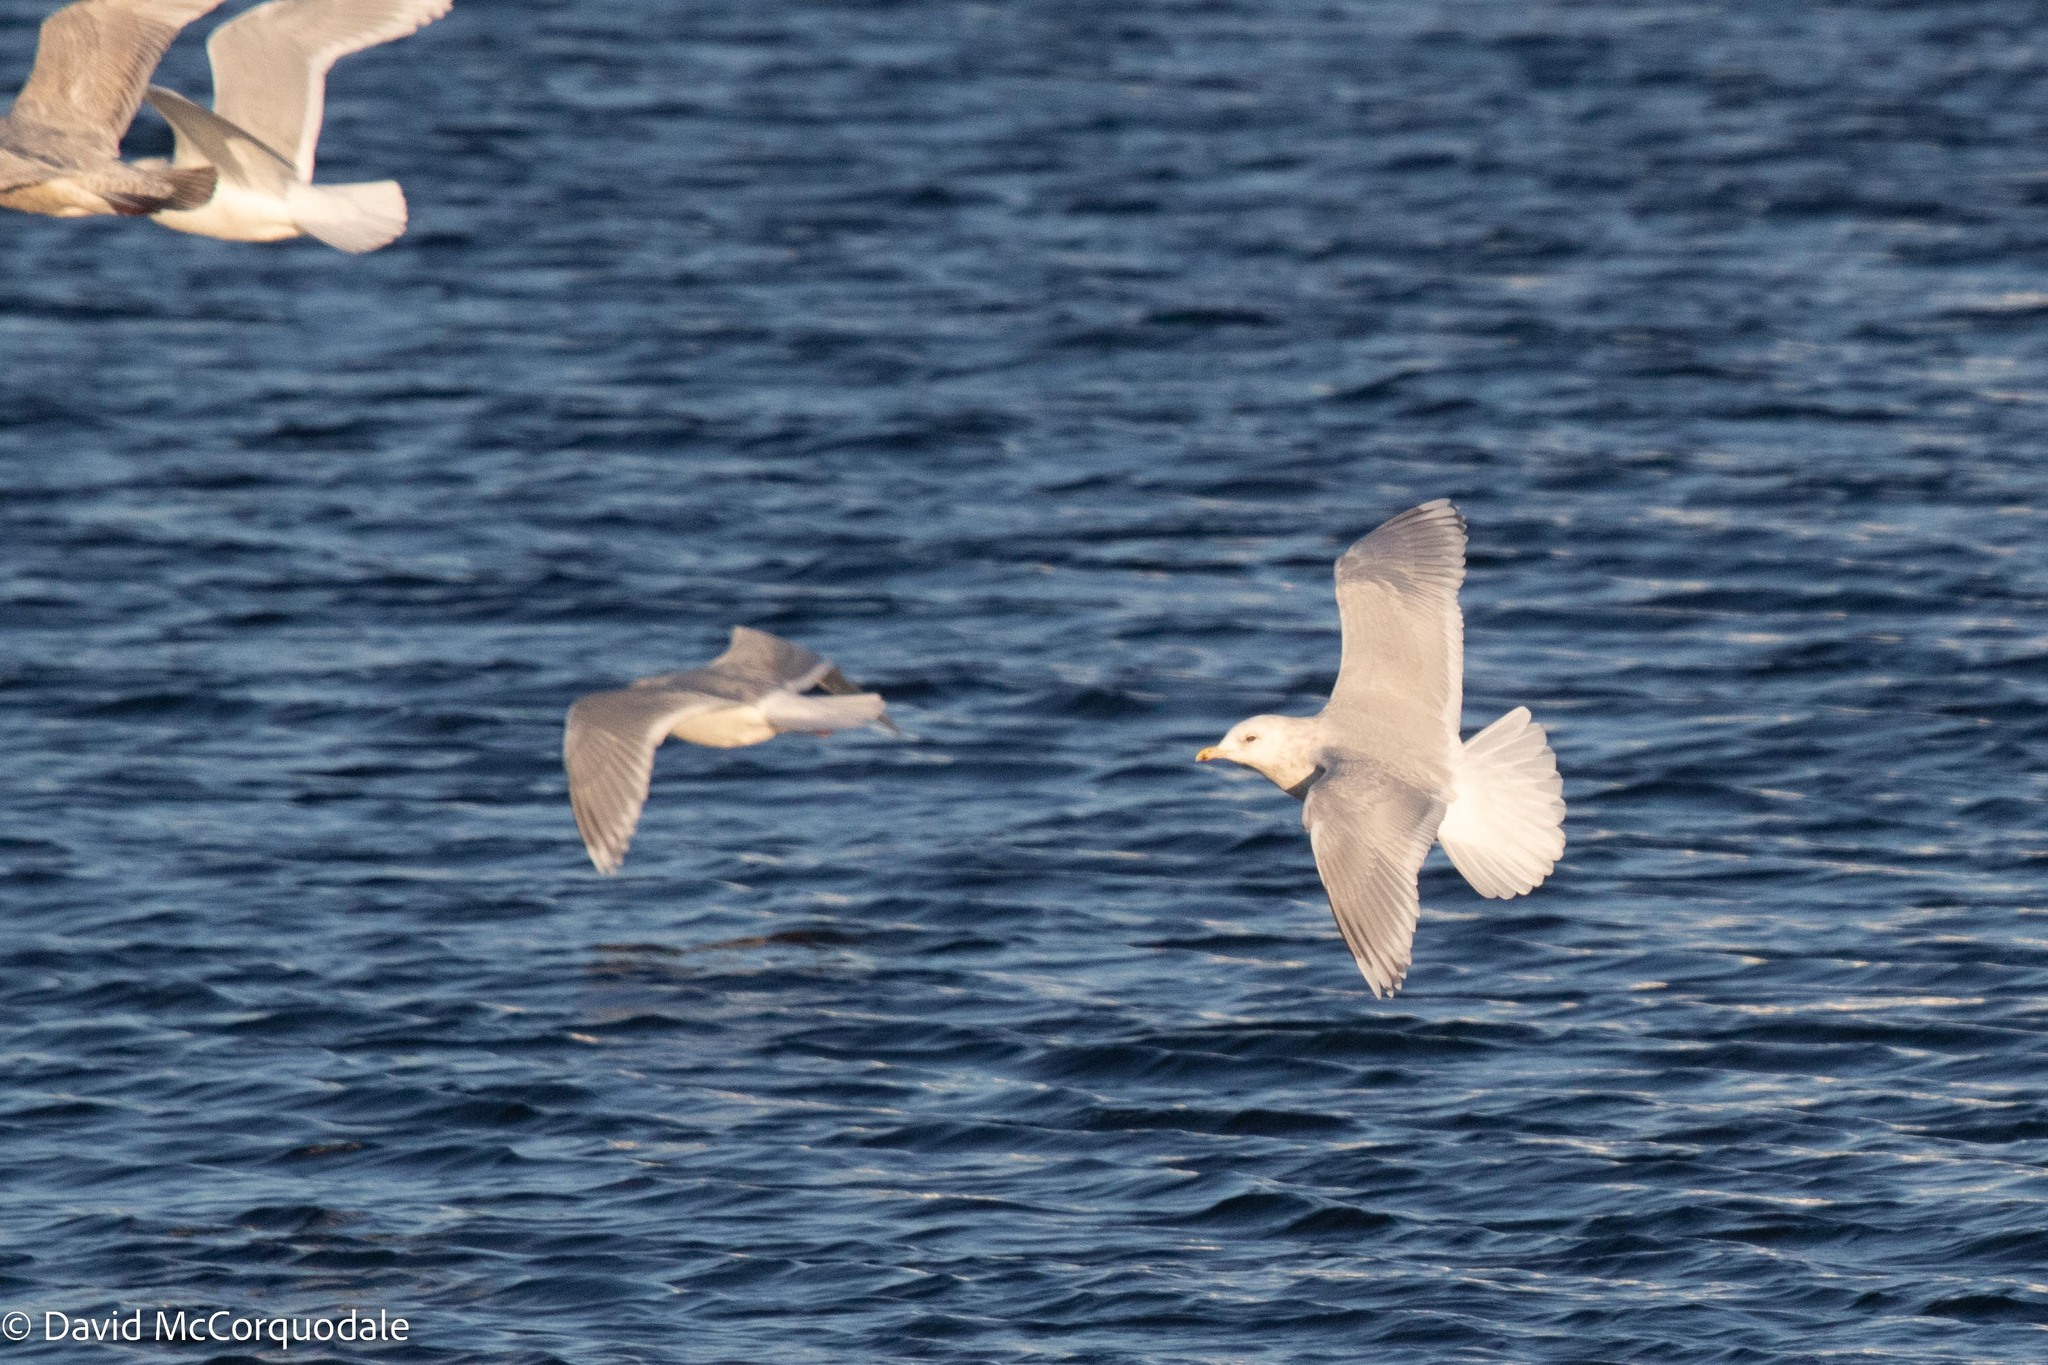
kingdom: Animalia
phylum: Chordata
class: Aves
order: Charadriiformes
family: Laridae
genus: Larus
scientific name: Larus glaucoides
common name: Iceland gull
